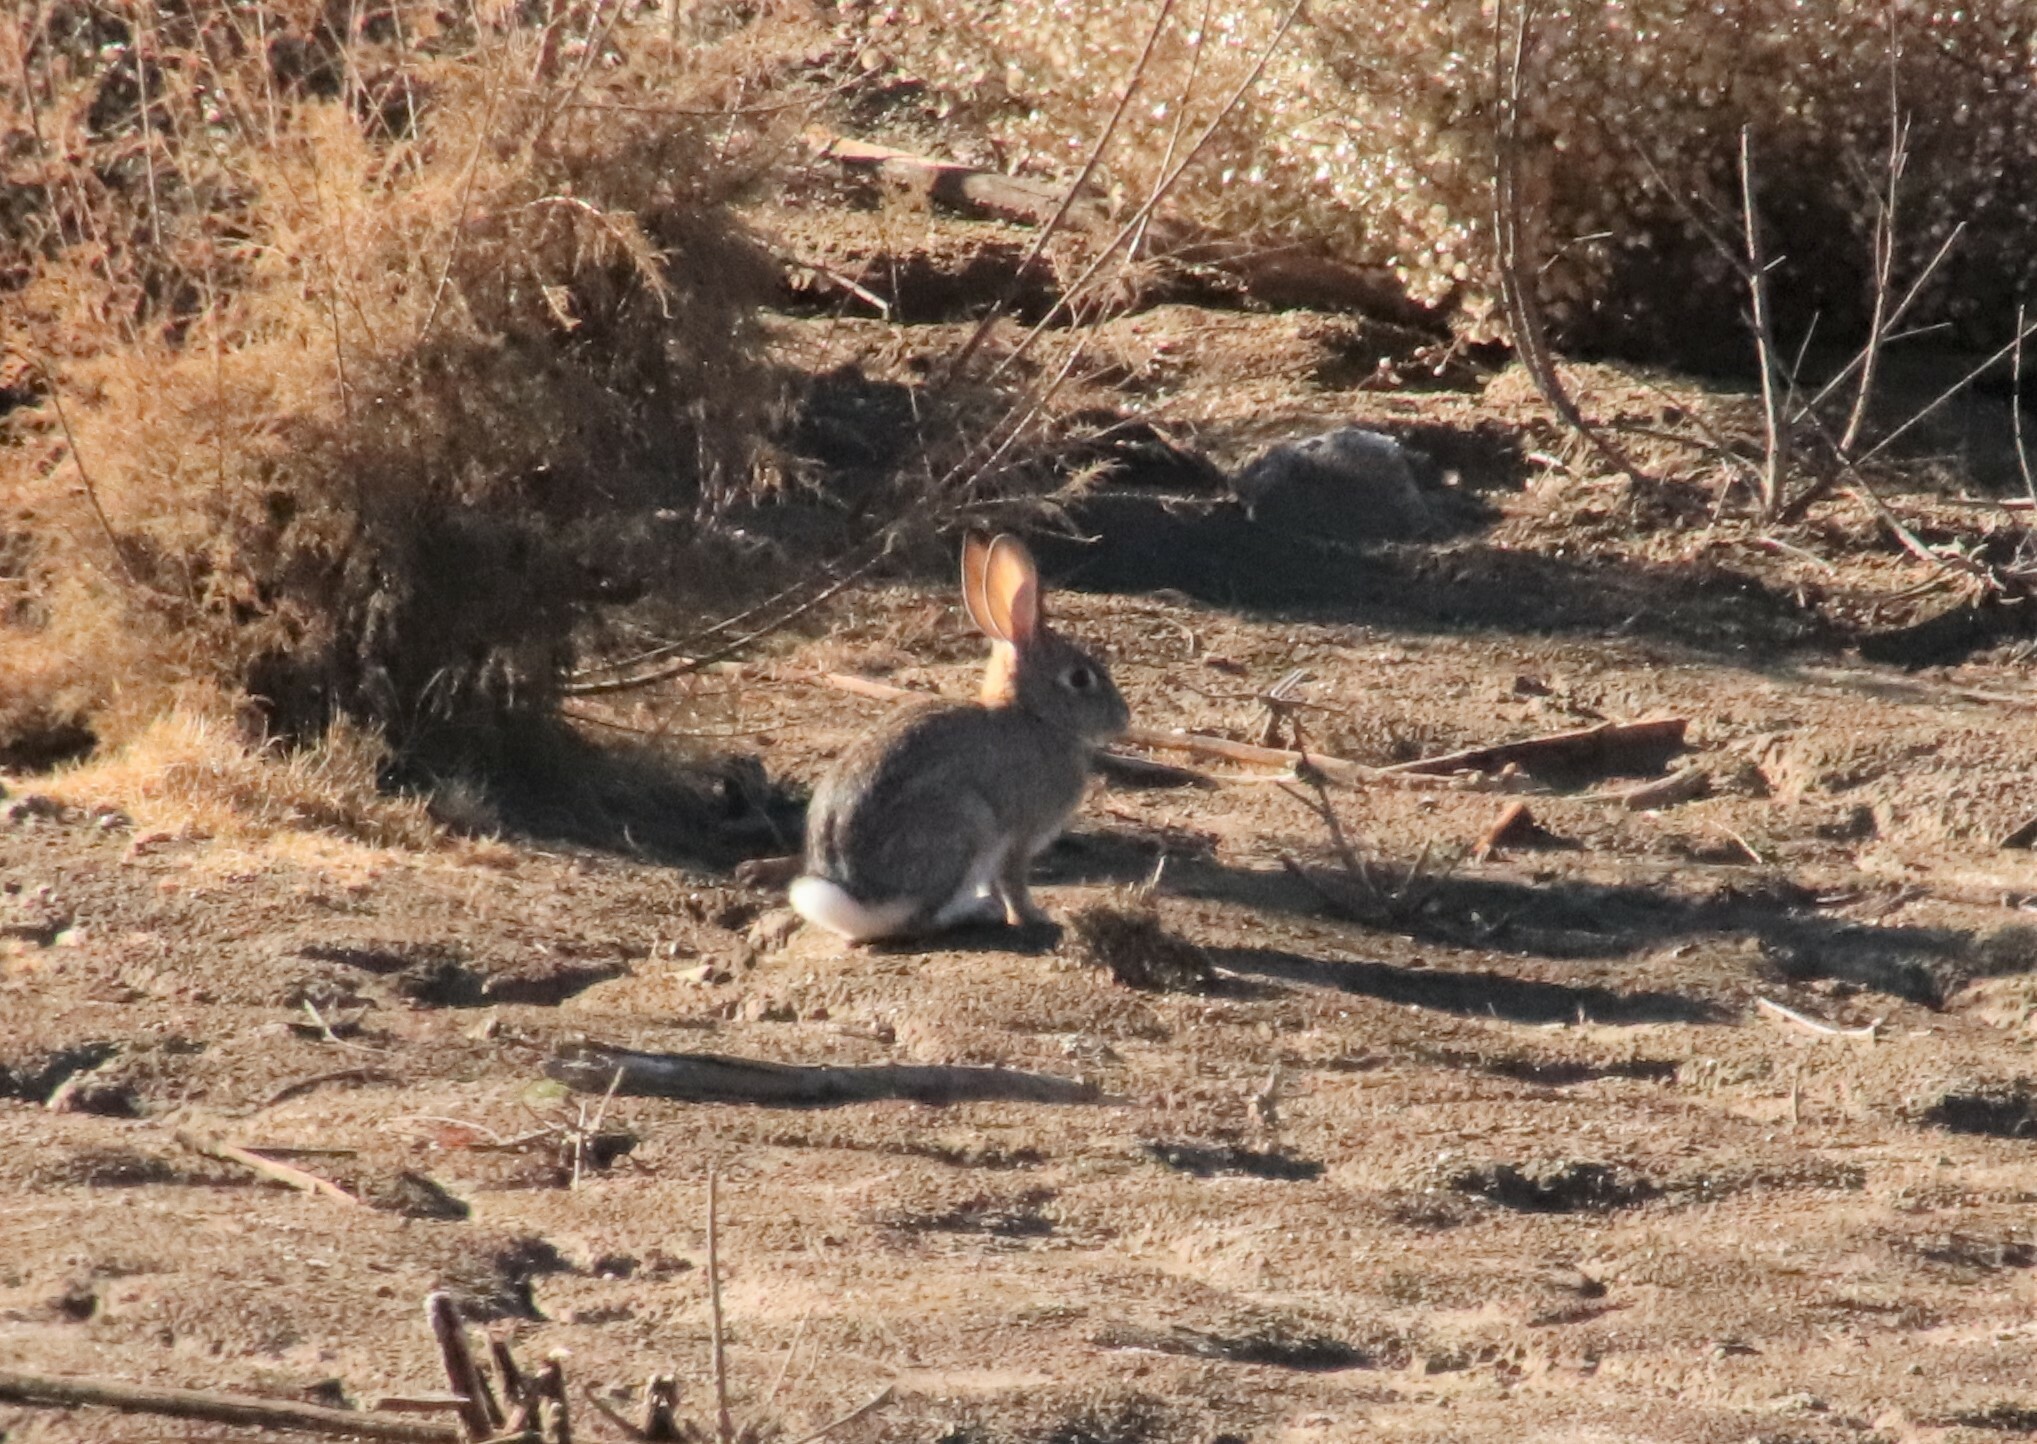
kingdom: Animalia
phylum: Chordata
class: Mammalia
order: Lagomorpha
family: Leporidae
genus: Sylvilagus
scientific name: Sylvilagus audubonii
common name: Desert cottontail
